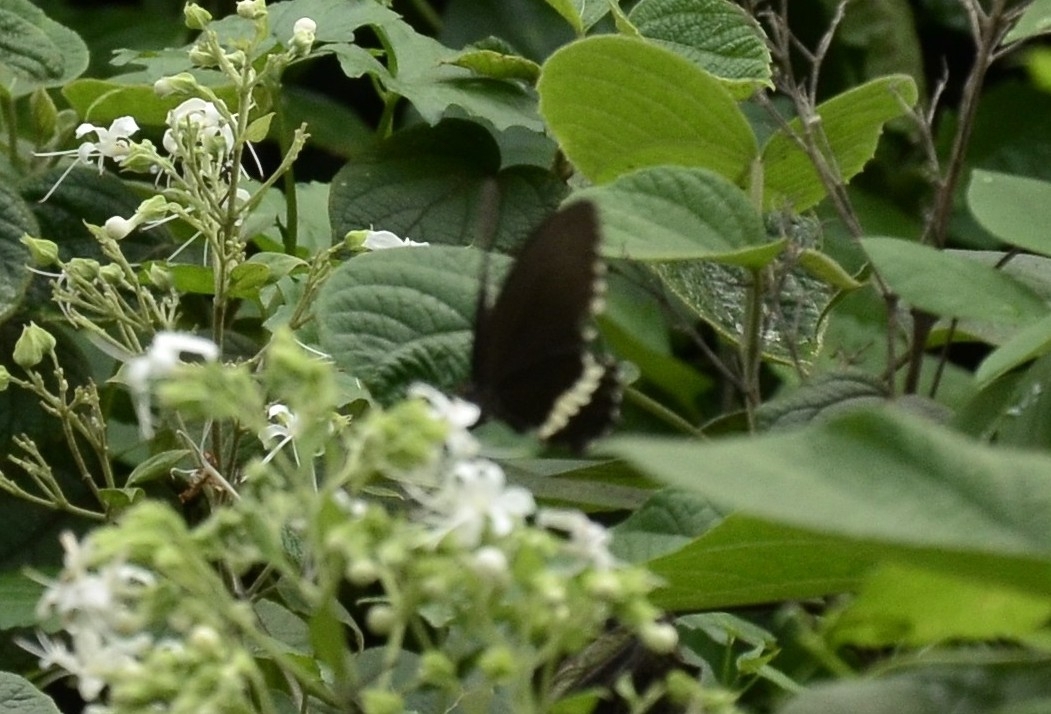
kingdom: Animalia
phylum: Arthropoda
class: Insecta
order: Lepidoptera
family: Papilionidae
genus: Papilio
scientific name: Papilio polytes
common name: Common mormon
